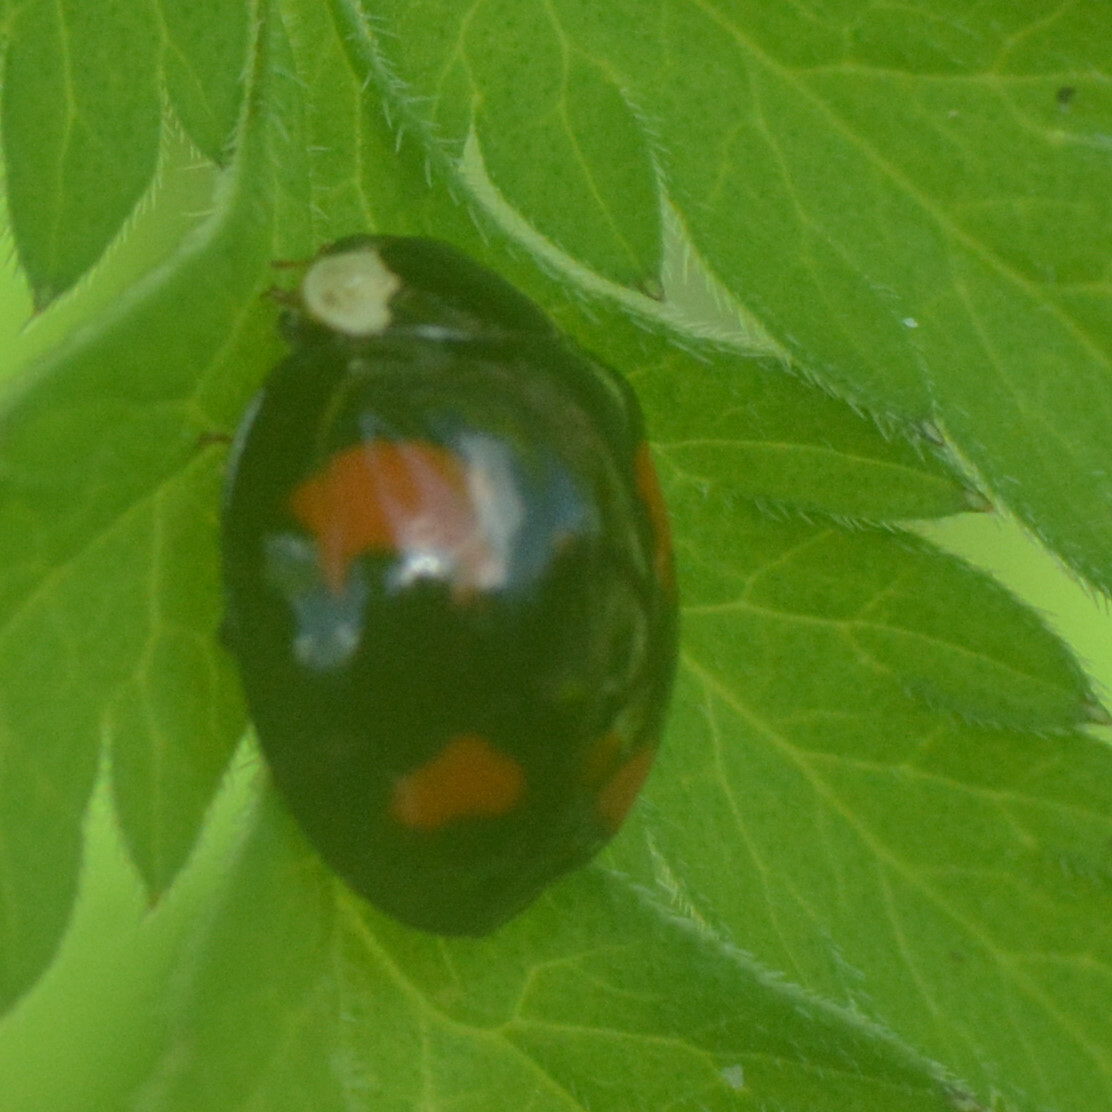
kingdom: Animalia
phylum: Arthropoda
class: Insecta
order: Coleoptera
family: Coccinellidae
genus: Harmonia
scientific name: Harmonia axyridis
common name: Harlequin ladybird
